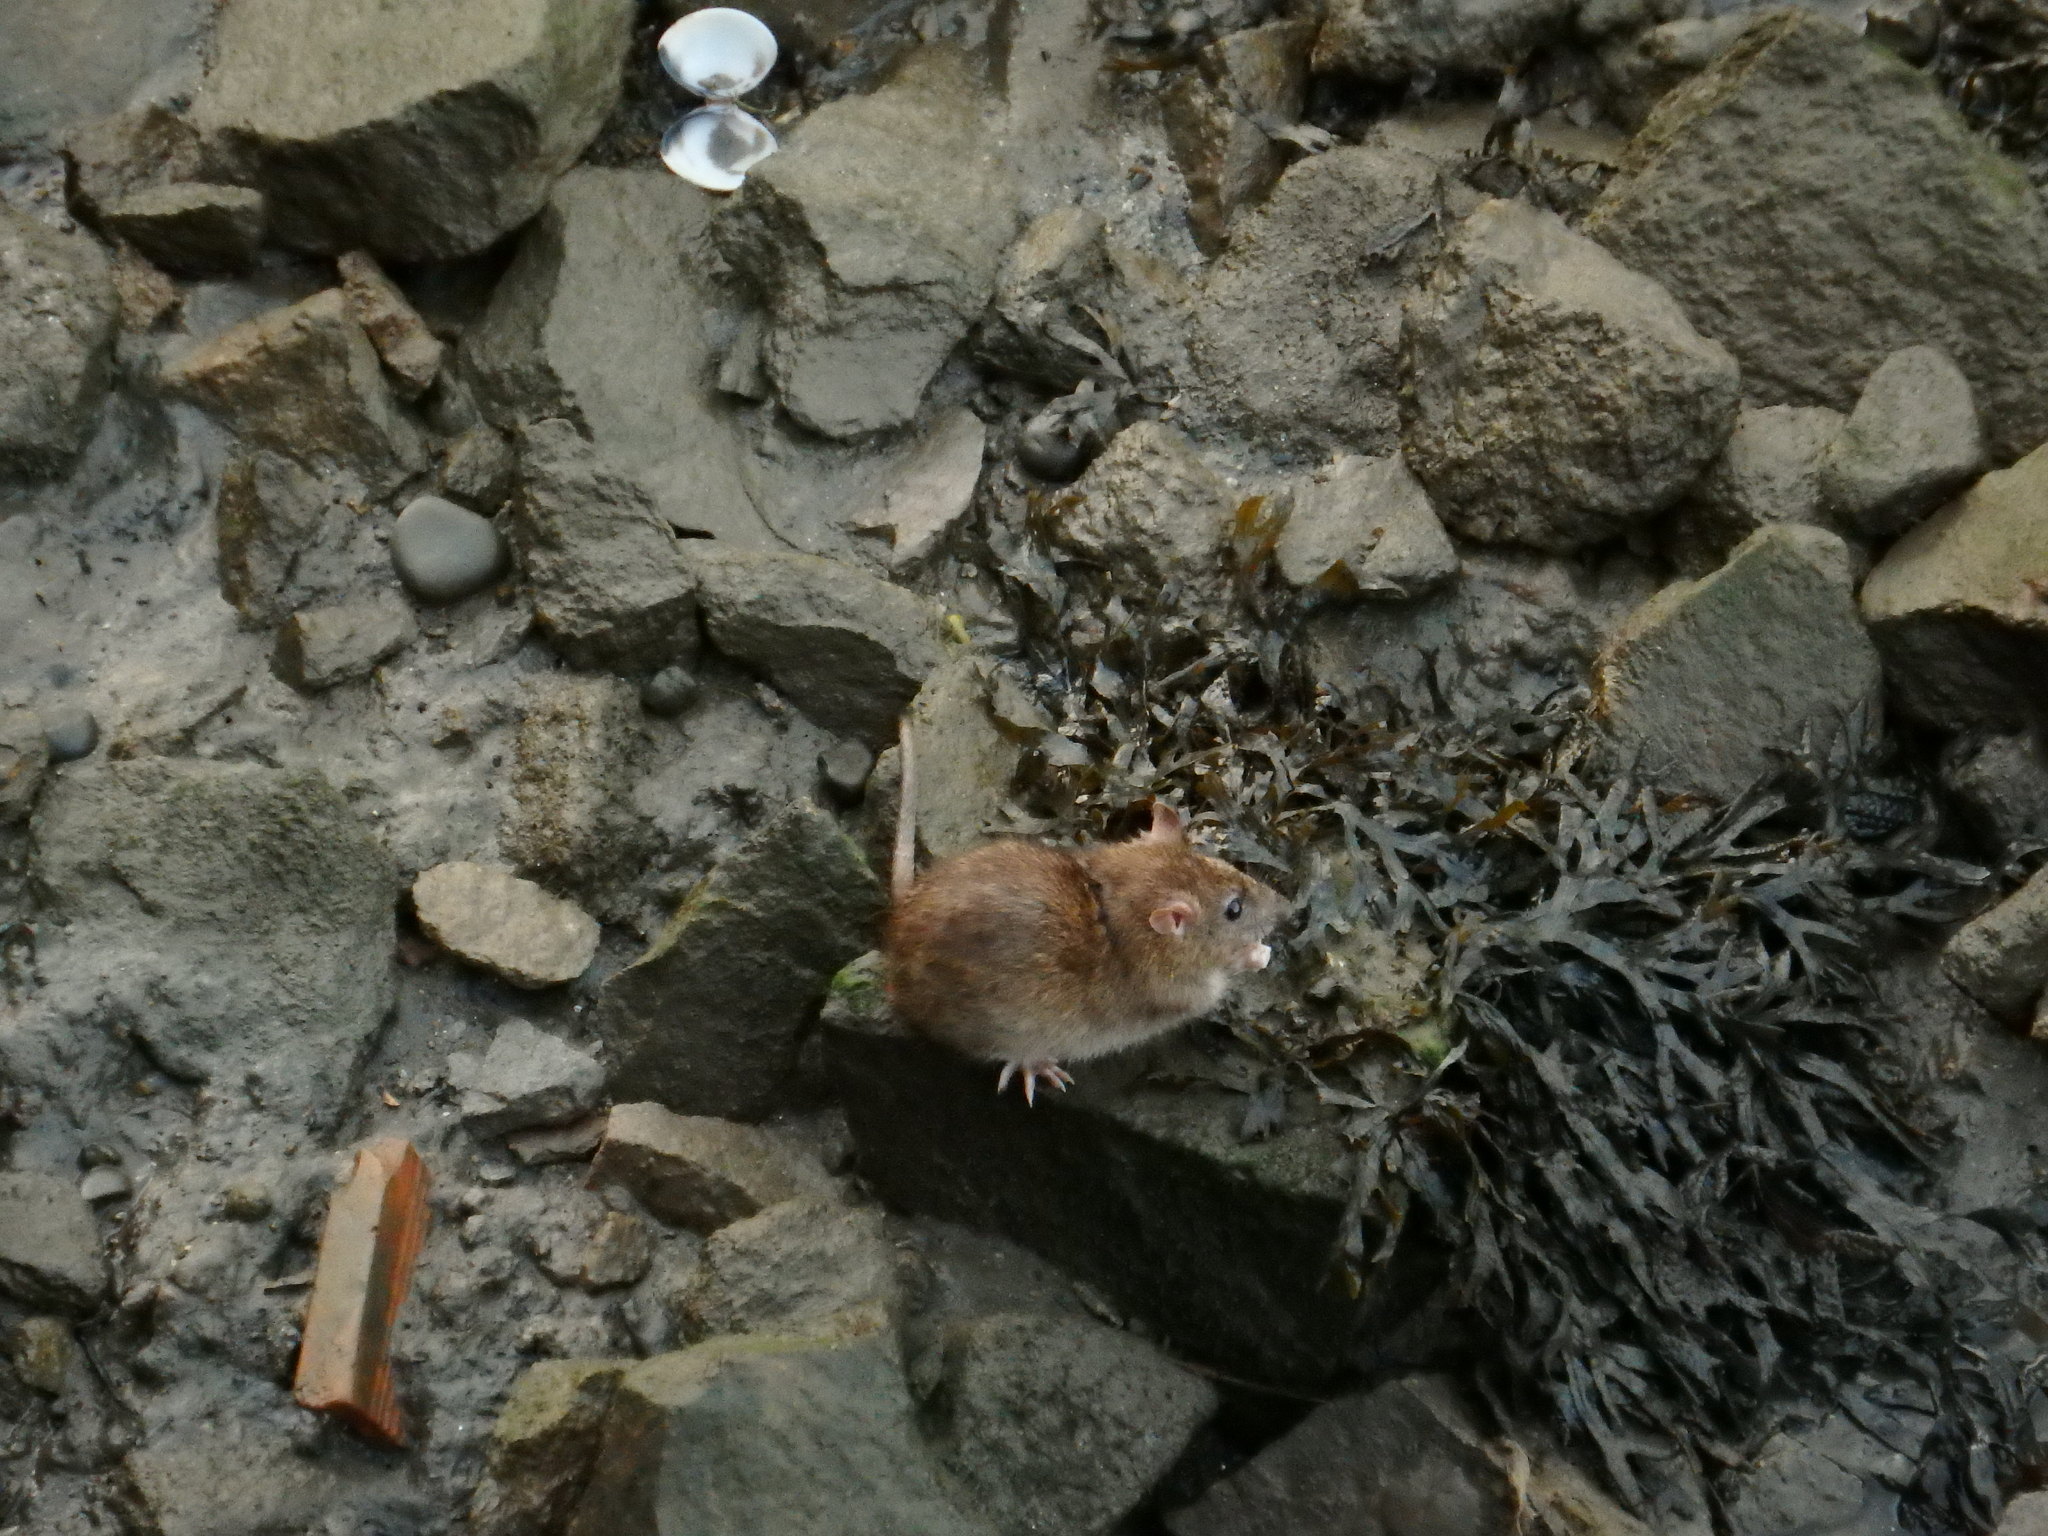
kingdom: Animalia
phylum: Chordata
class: Mammalia
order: Rodentia
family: Muridae
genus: Rattus
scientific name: Rattus norvegicus
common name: Brown rat
